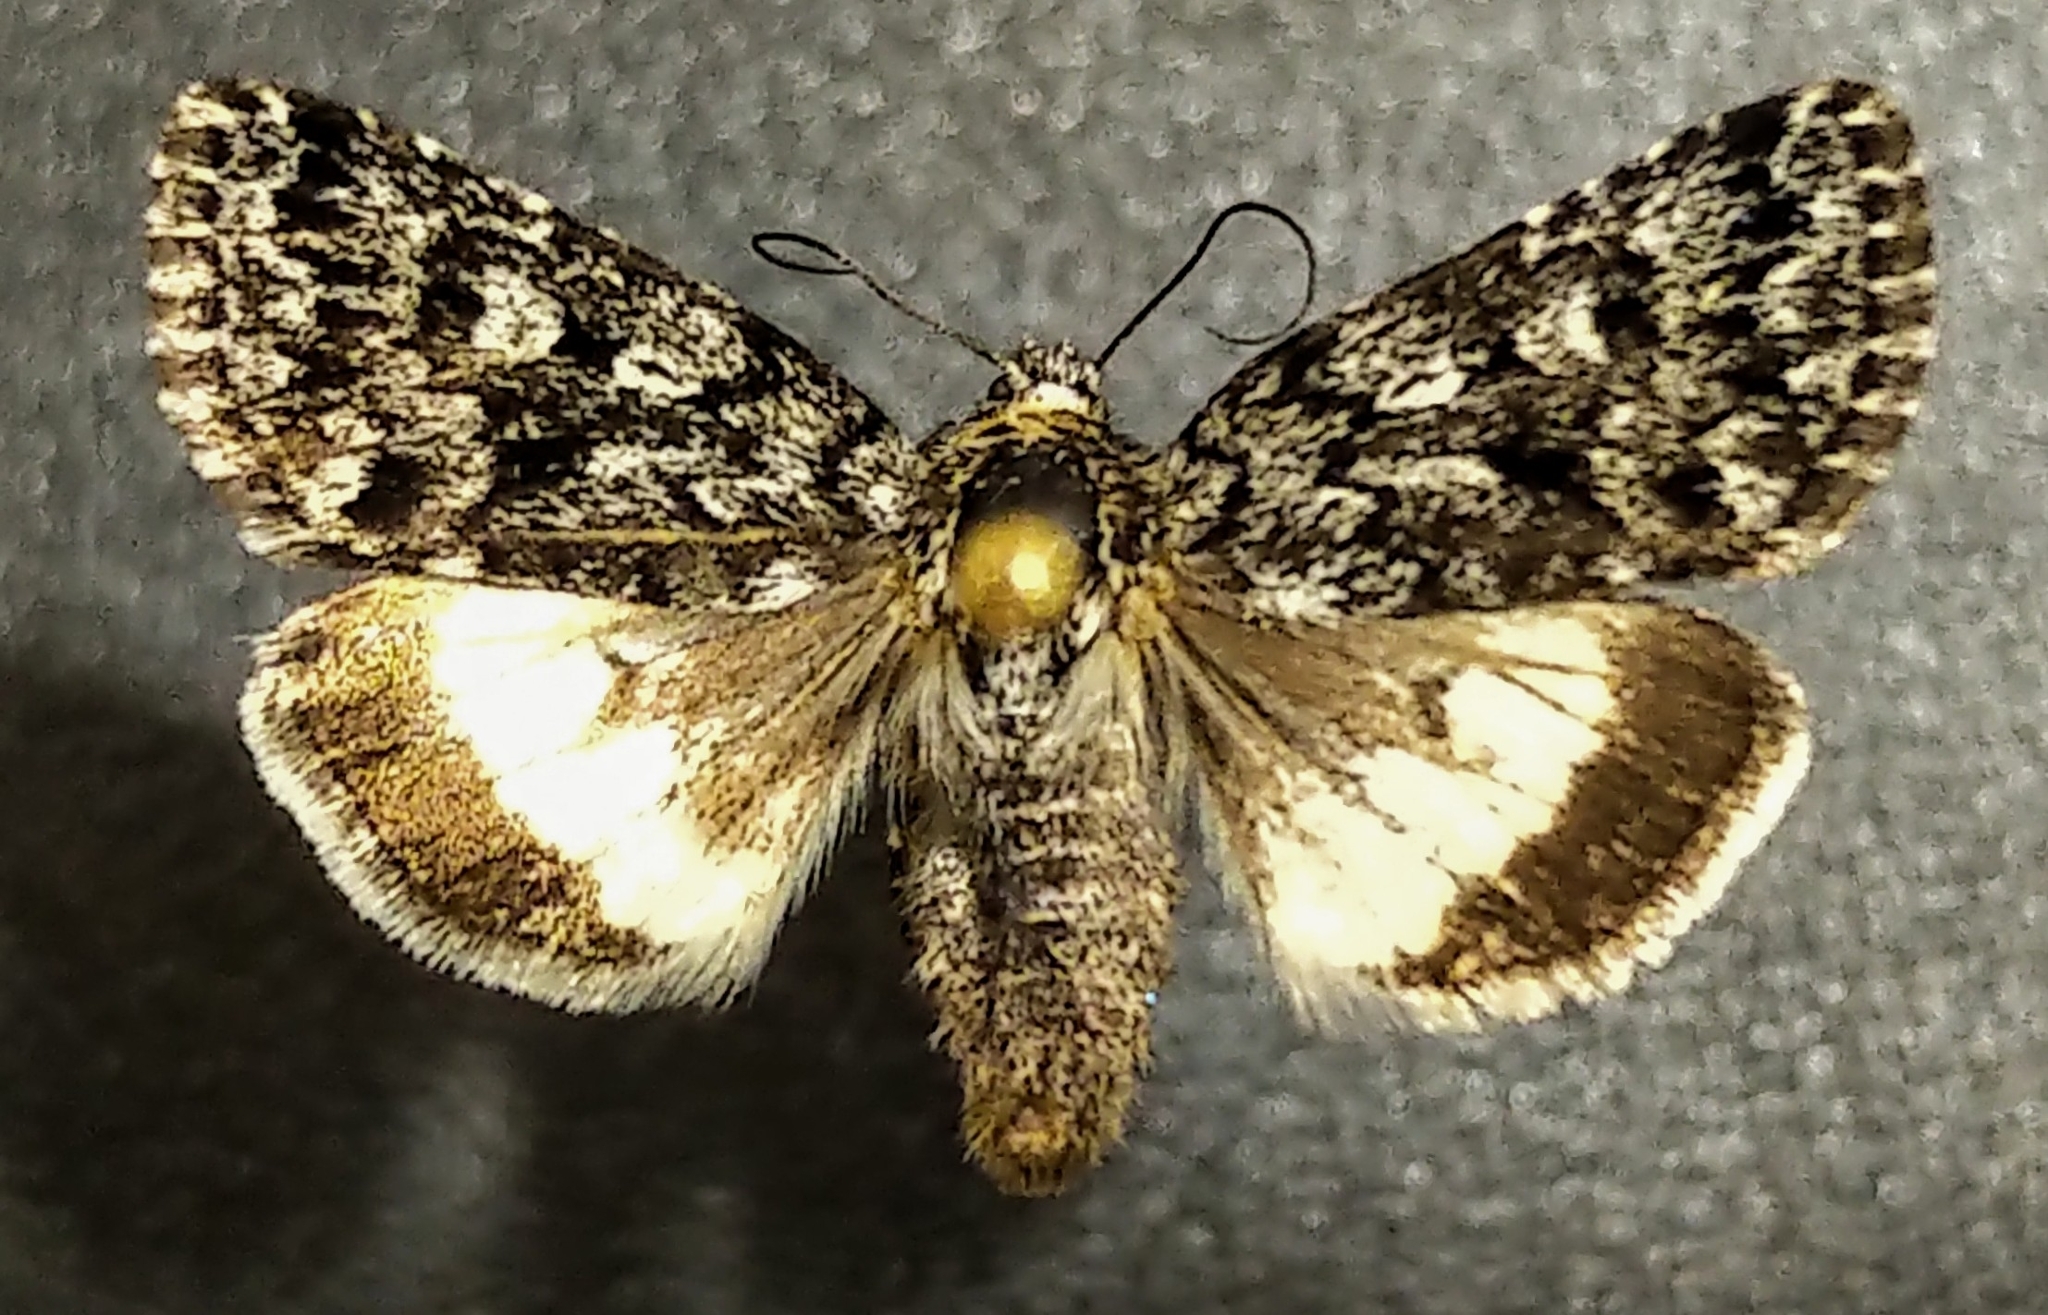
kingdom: Animalia
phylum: Arthropoda
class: Insecta
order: Lepidoptera
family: Noctuidae
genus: Sympistis
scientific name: Sympistis heliophila
